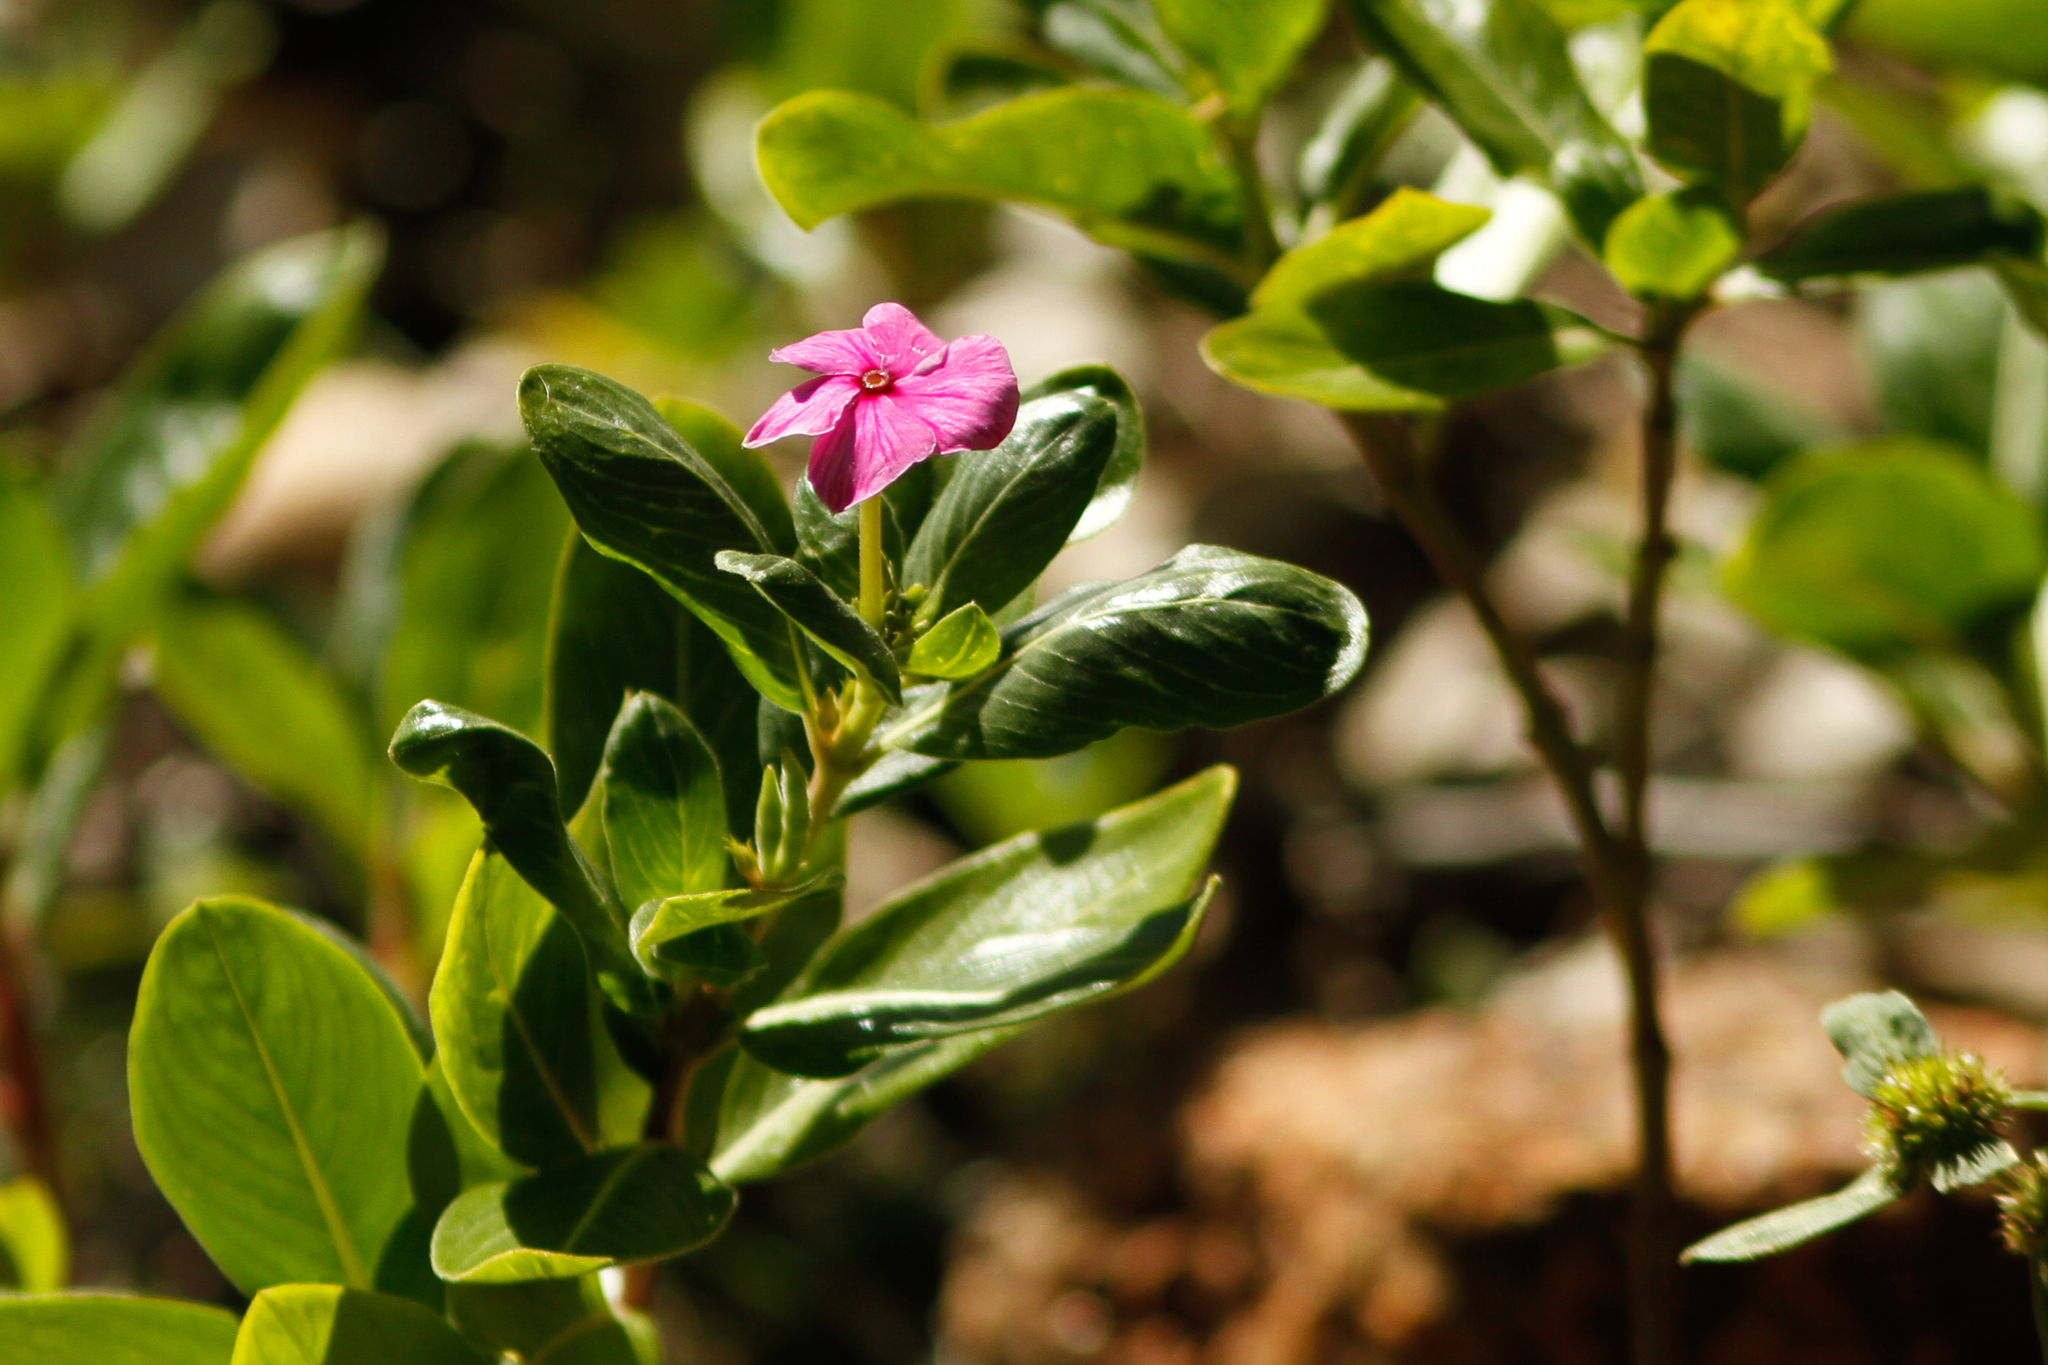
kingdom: Plantae
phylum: Tracheophyta
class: Magnoliopsida
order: Gentianales
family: Apocynaceae
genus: Catharanthus
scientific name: Catharanthus roseus
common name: Madagascar periwinkle
